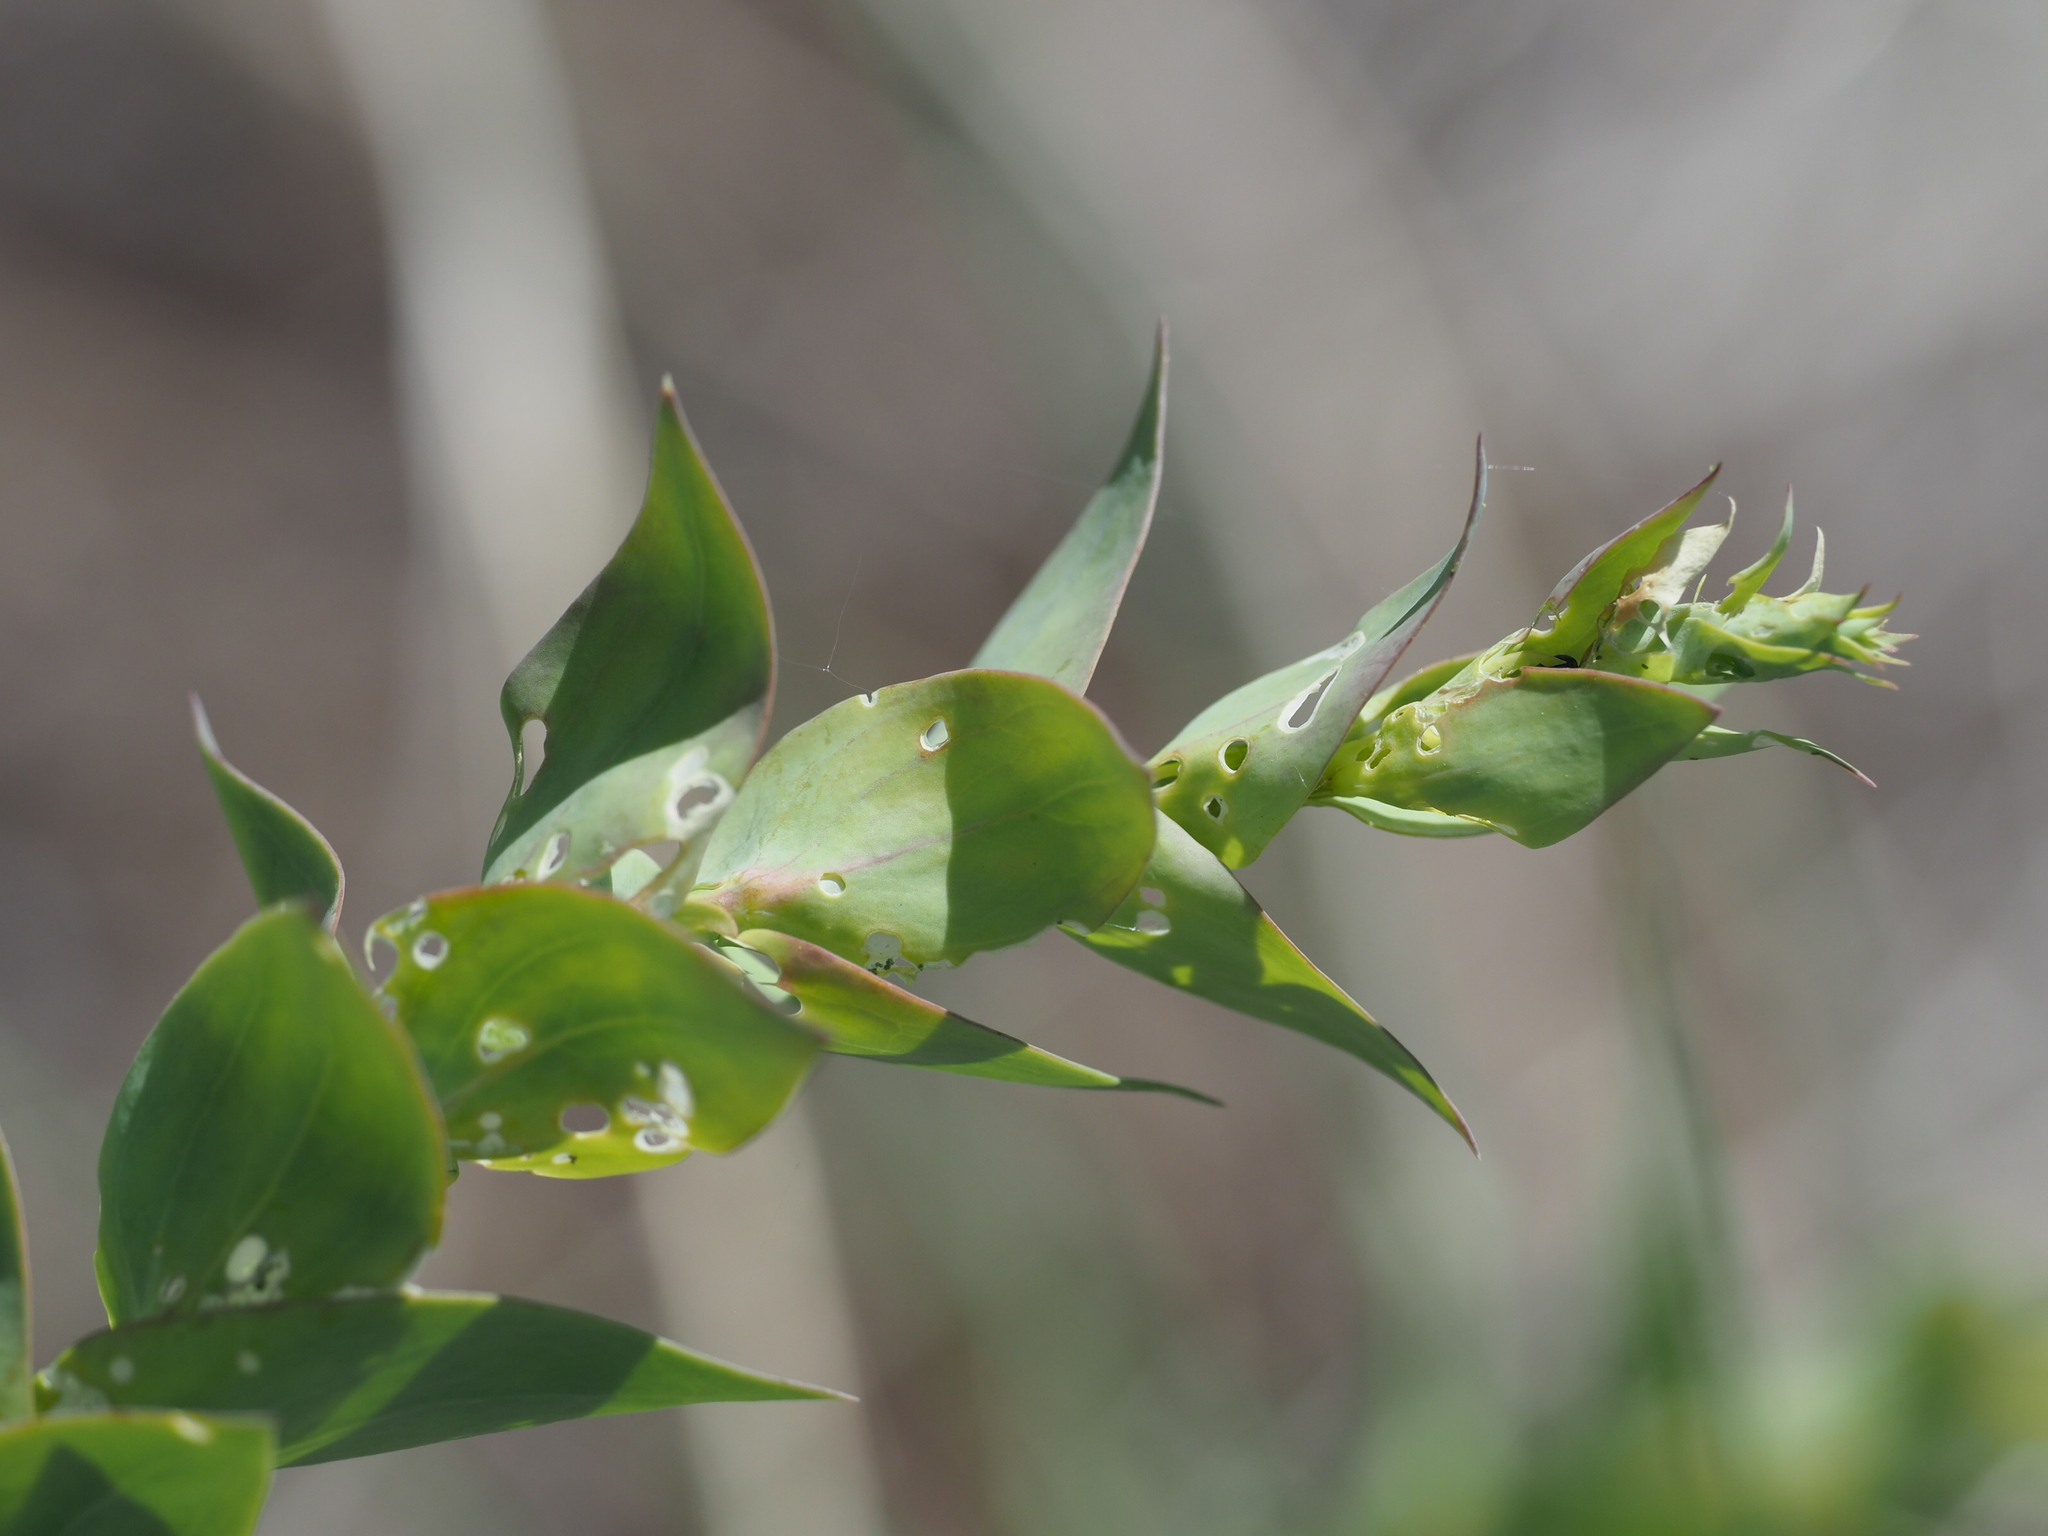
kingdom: Plantae
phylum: Tracheophyta
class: Magnoliopsida
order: Lamiales
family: Plantaginaceae
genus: Linaria
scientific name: Linaria dalmatica
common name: Dalmatian toadflax
